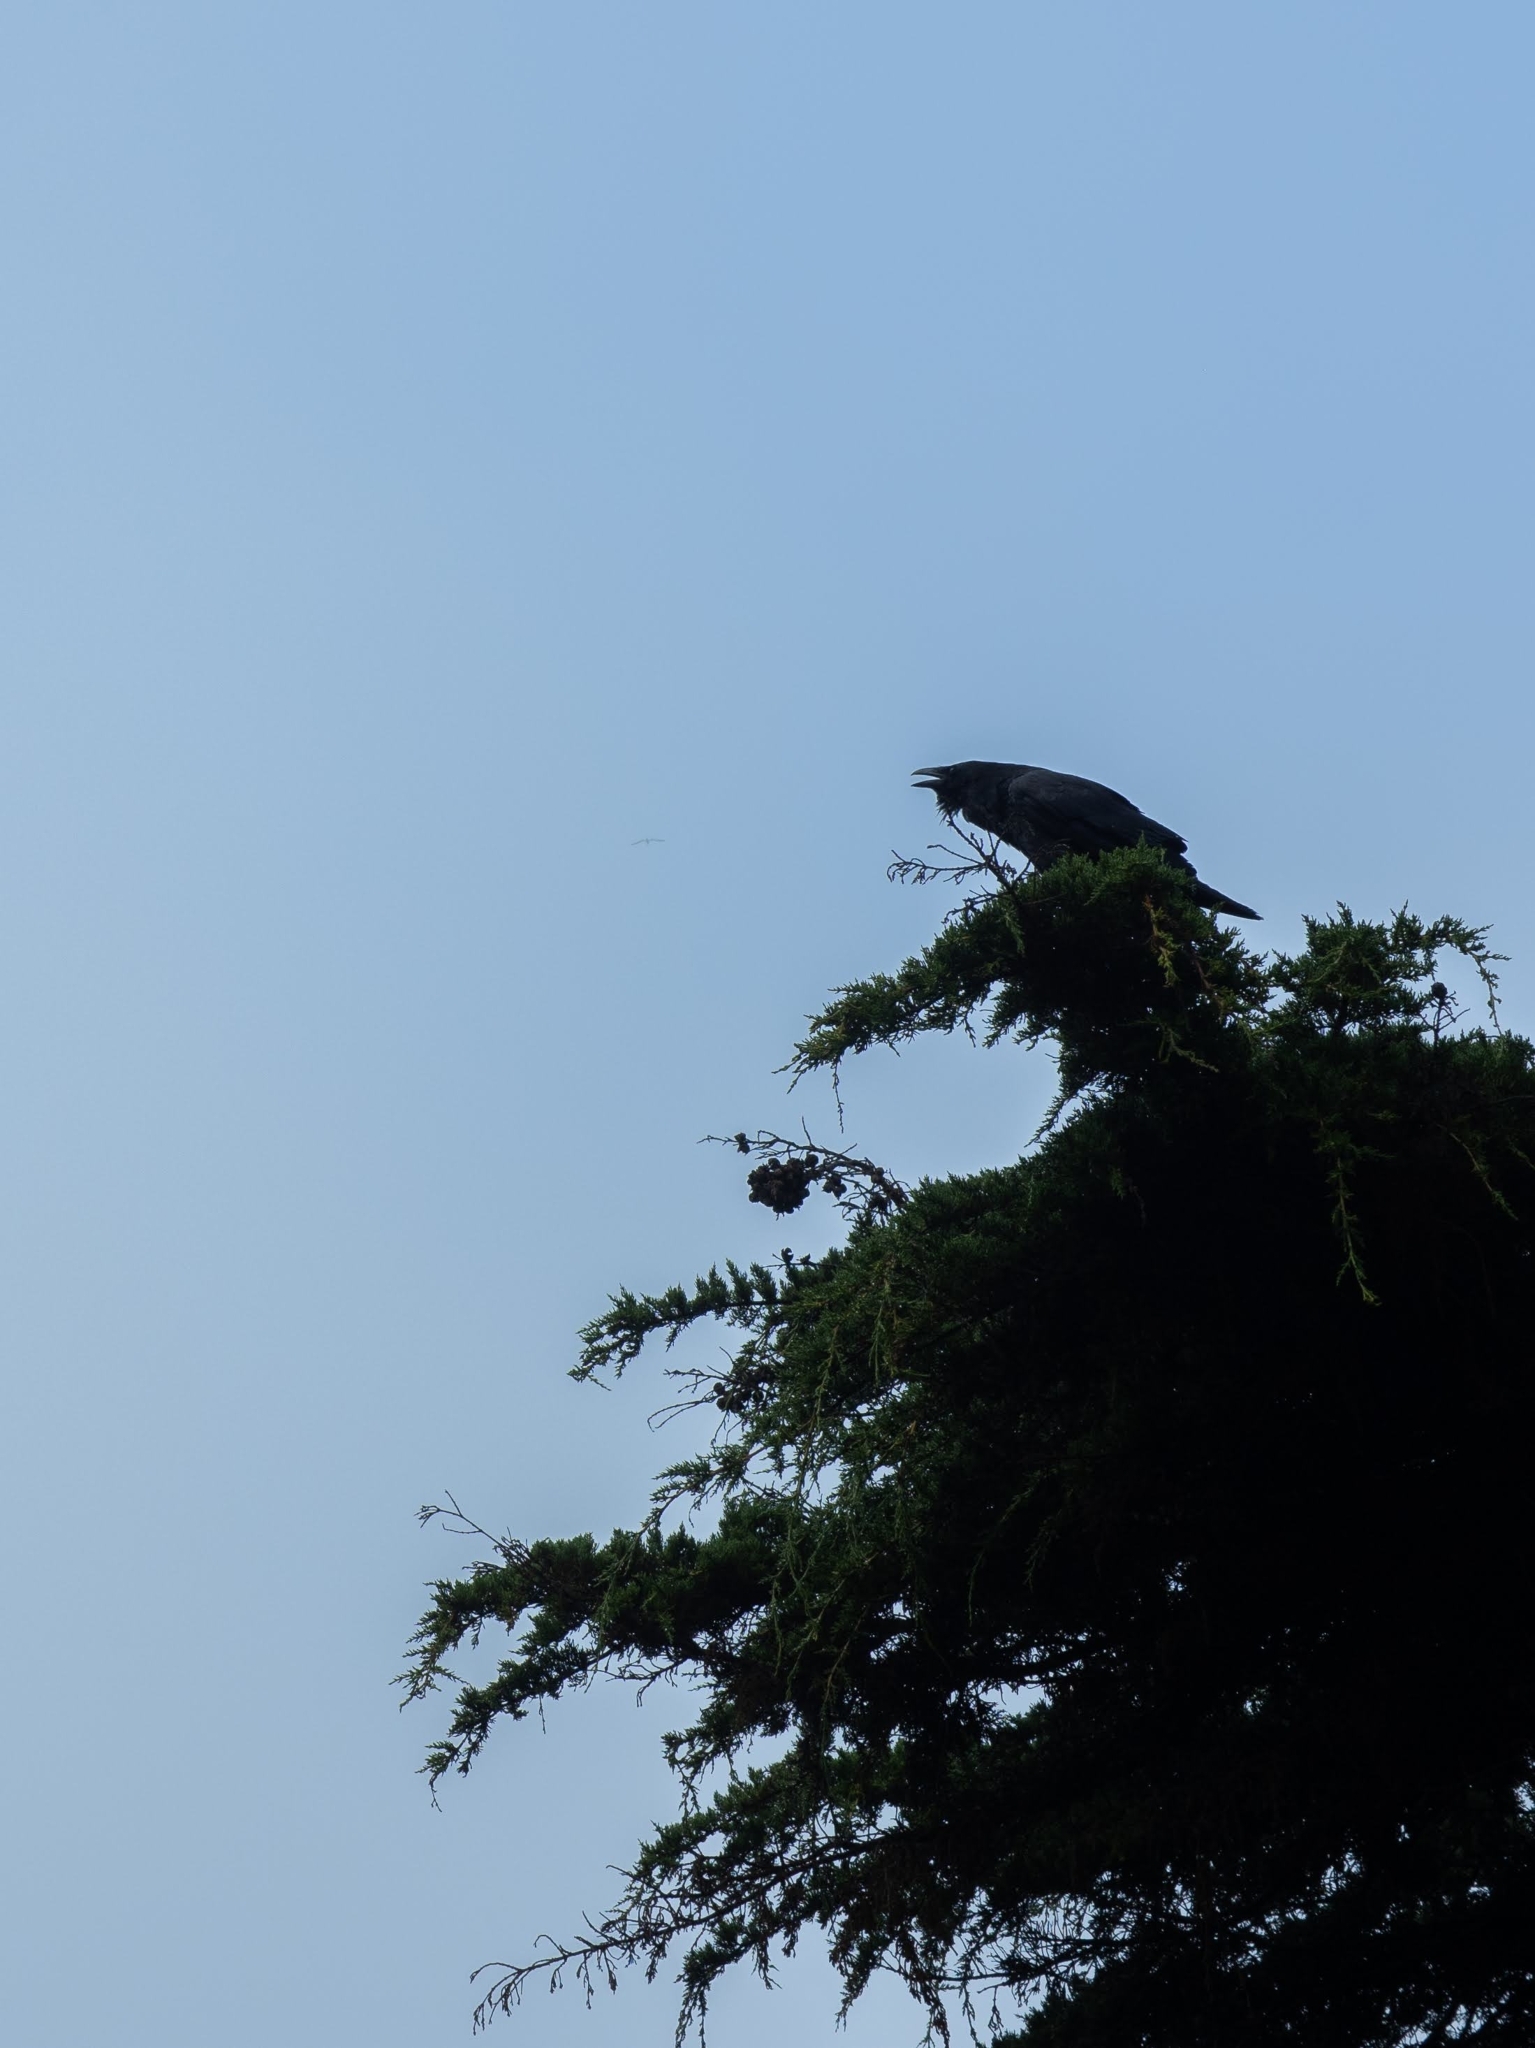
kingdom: Animalia
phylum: Chordata
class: Aves
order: Passeriformes
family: Corvidae
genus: Corvus
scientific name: Corvus corax
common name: Common raven
